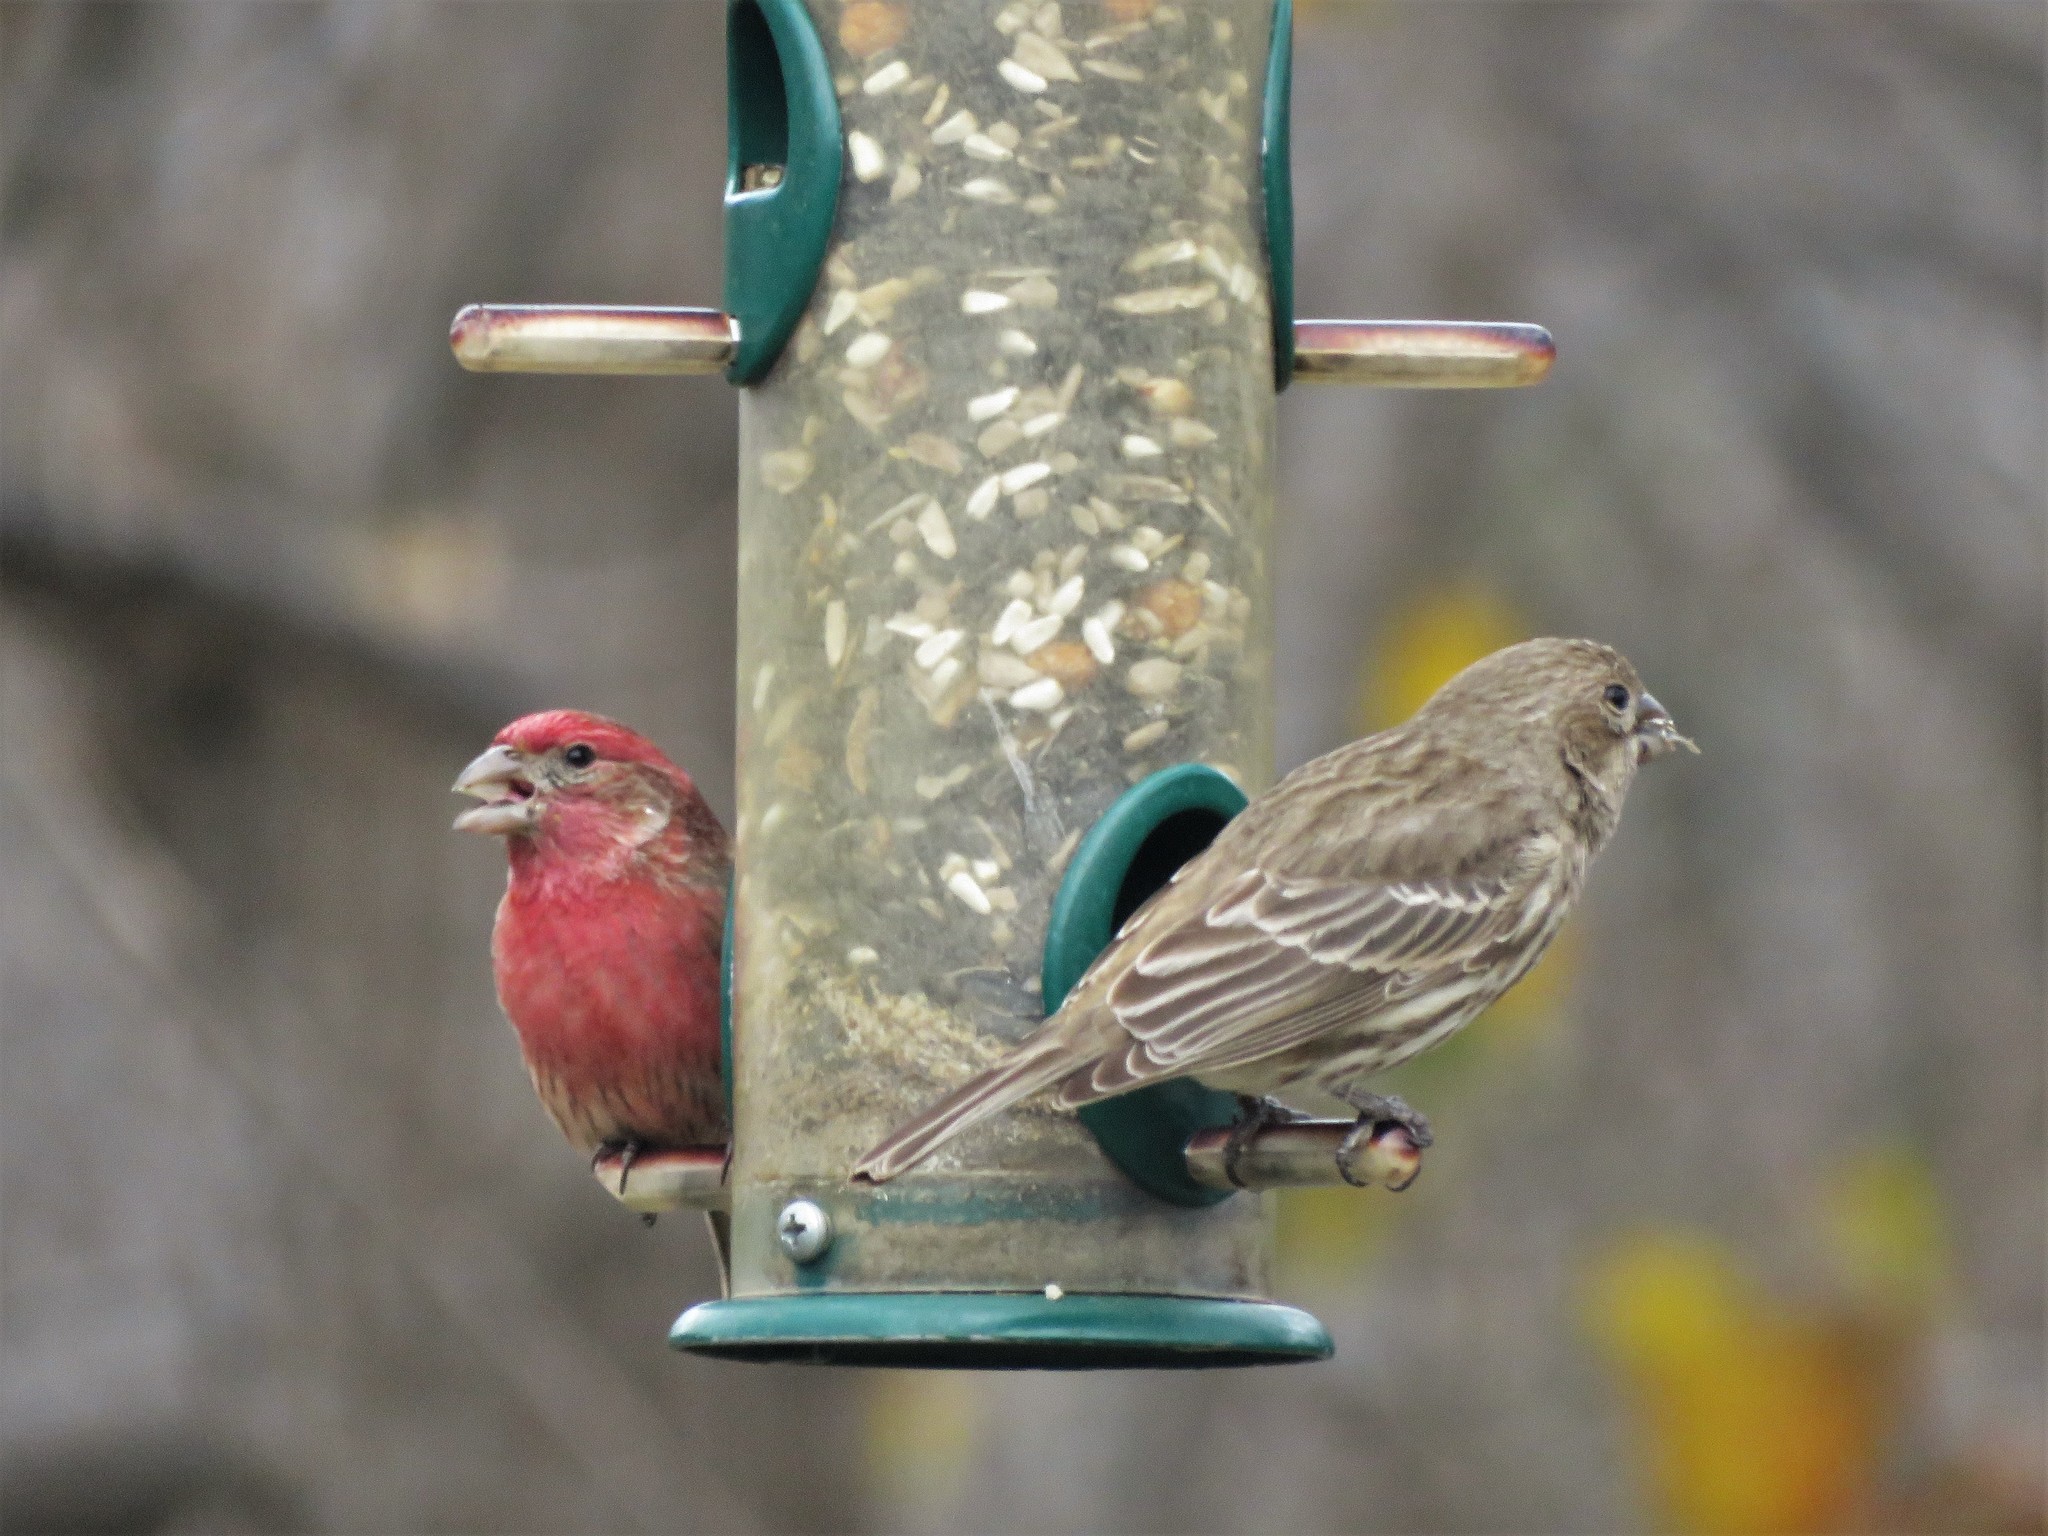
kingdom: Animalia
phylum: Chordata
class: Aves
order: Passeriformes
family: Fringillidae
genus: Haemorhous
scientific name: Haemorhous mexicanus
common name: House finch
